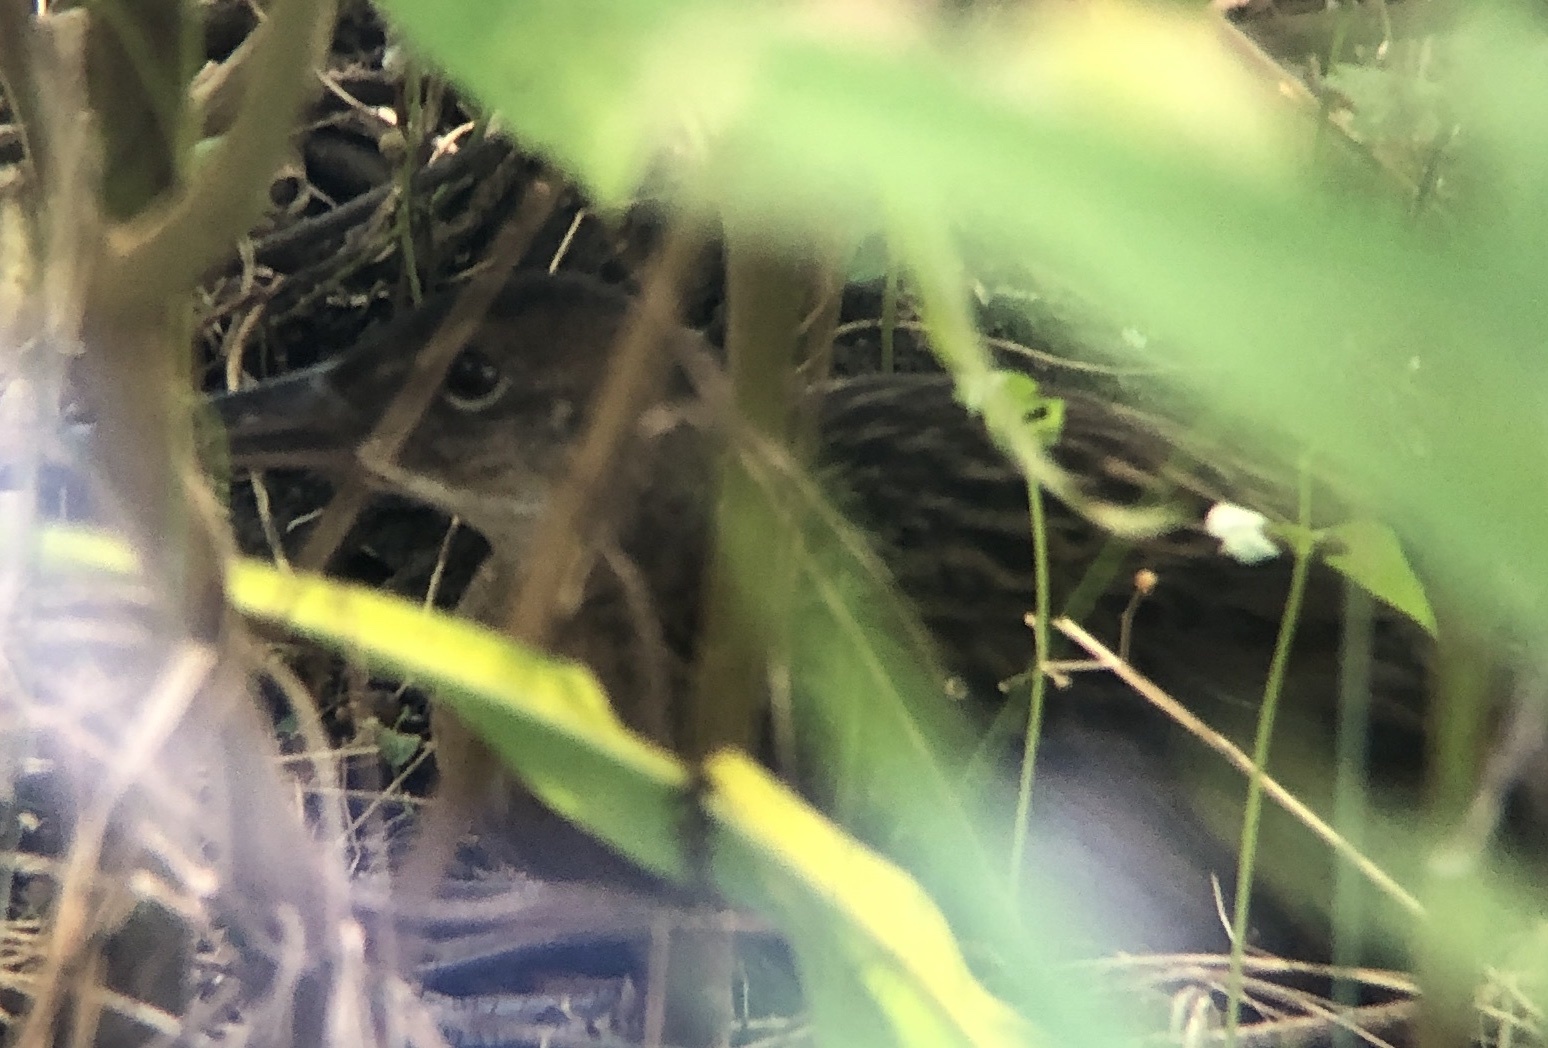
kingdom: Animalia
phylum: Chordata
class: Aves
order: Gruiformes
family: Rallidae
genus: Rallus
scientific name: Rallus elegans
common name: King rail
